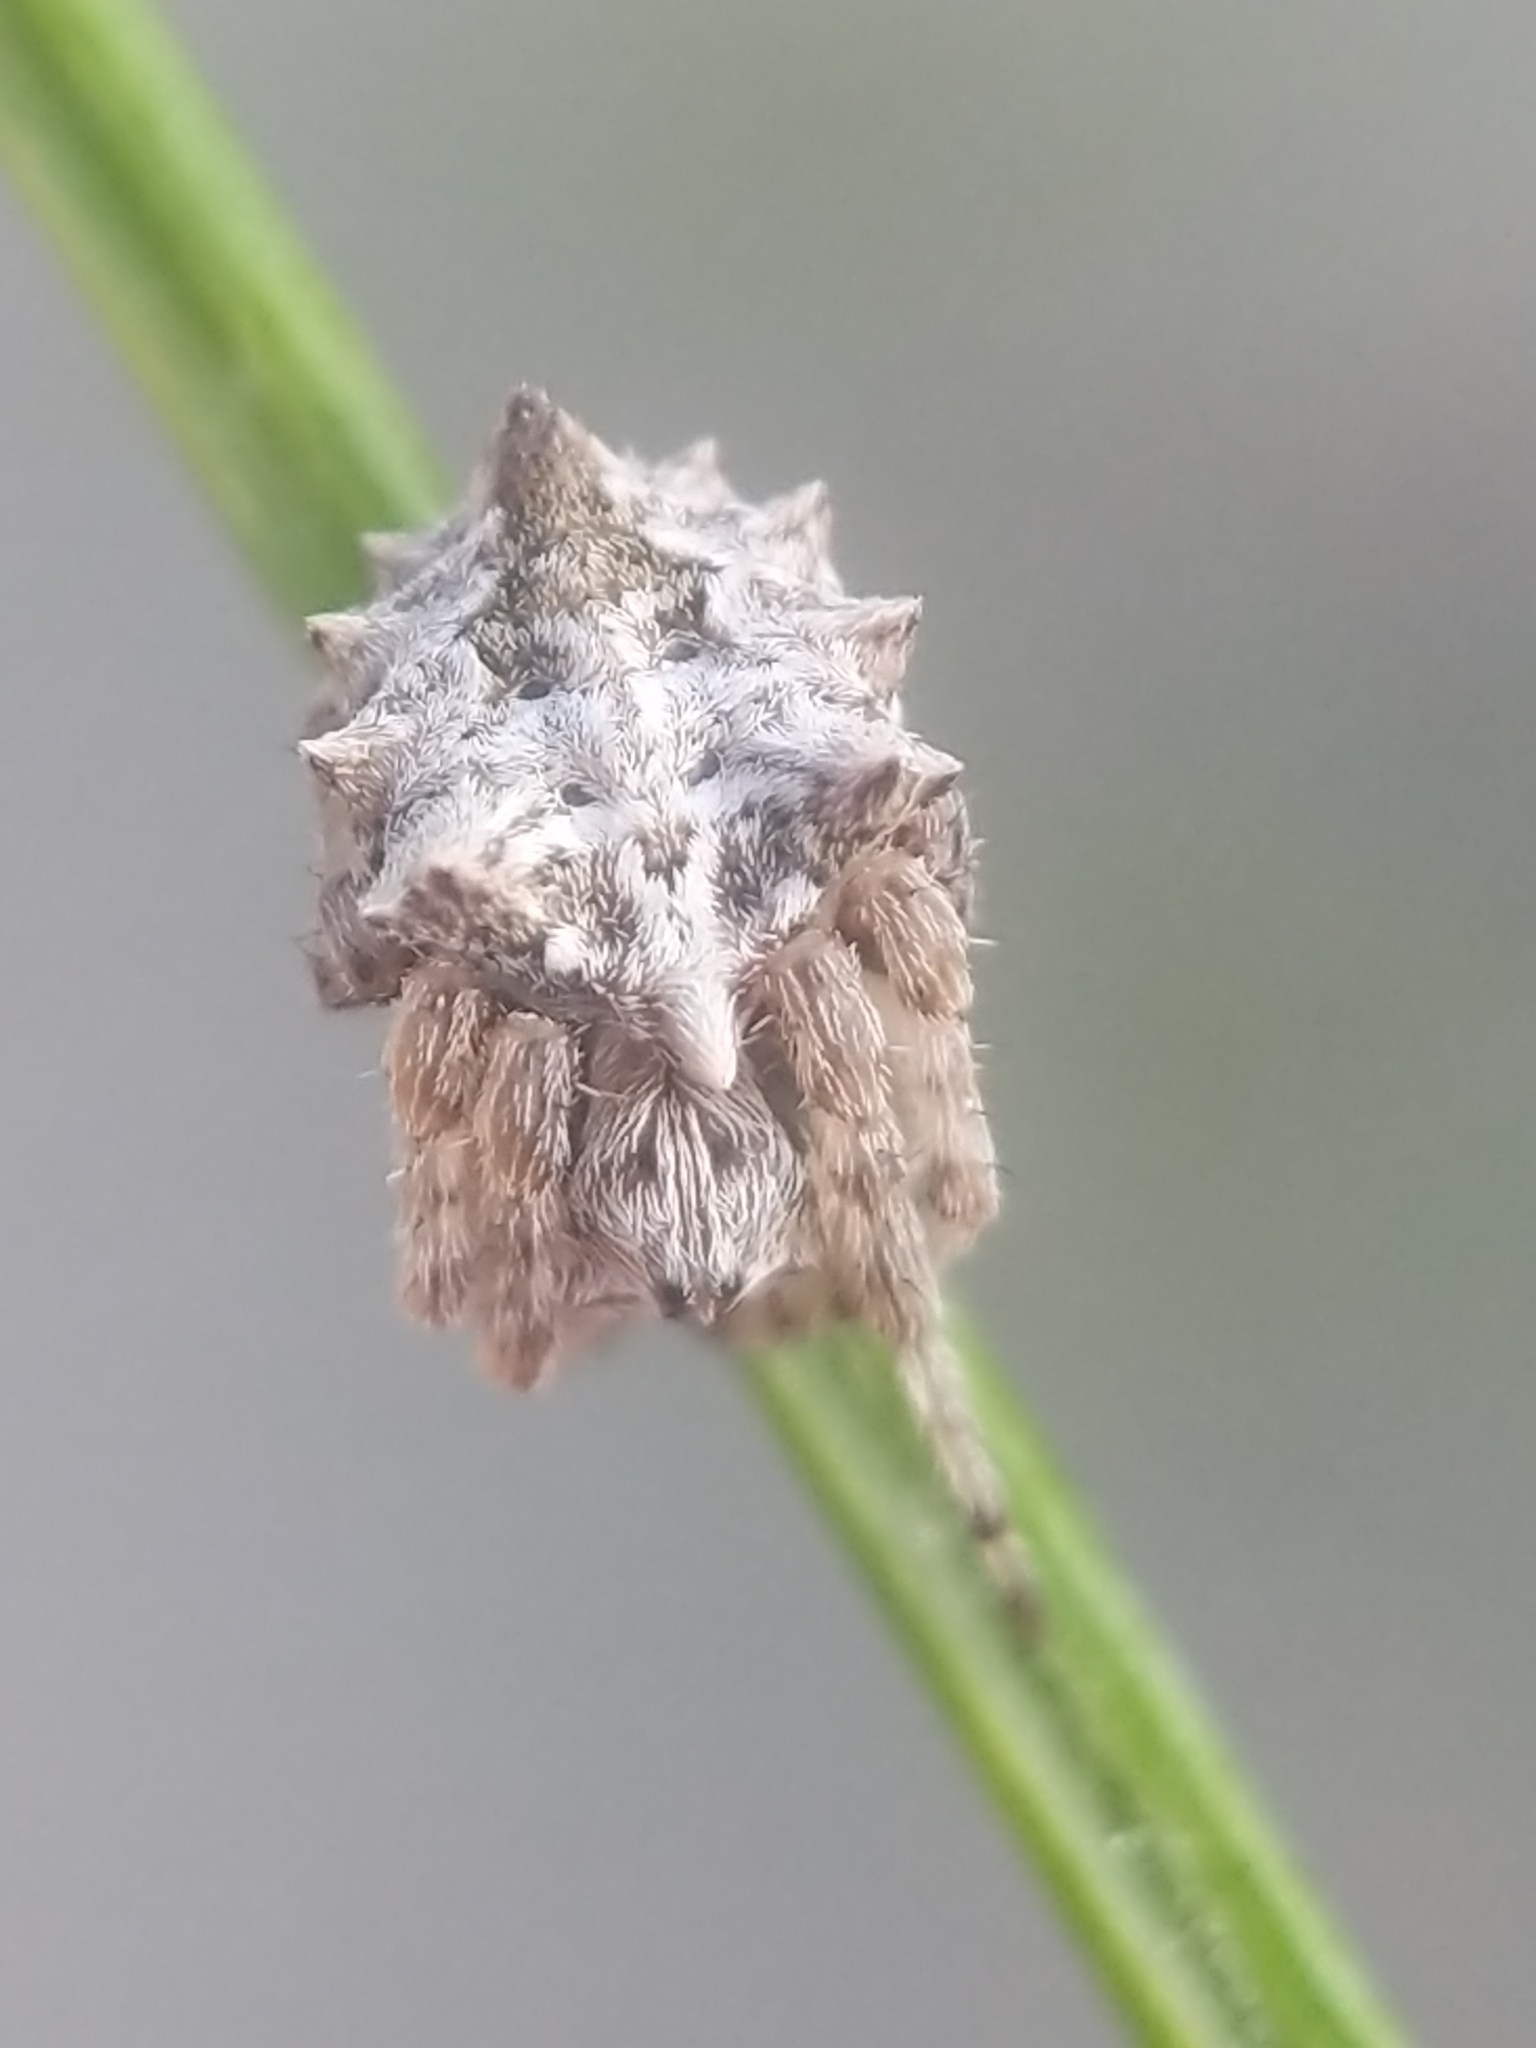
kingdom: Animalia
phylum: Arthropoda
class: Arachnida
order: Araneae
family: Araneidae
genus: Acanthepeira
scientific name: Acanthepeira stellata
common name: Starbellied orbweaver
